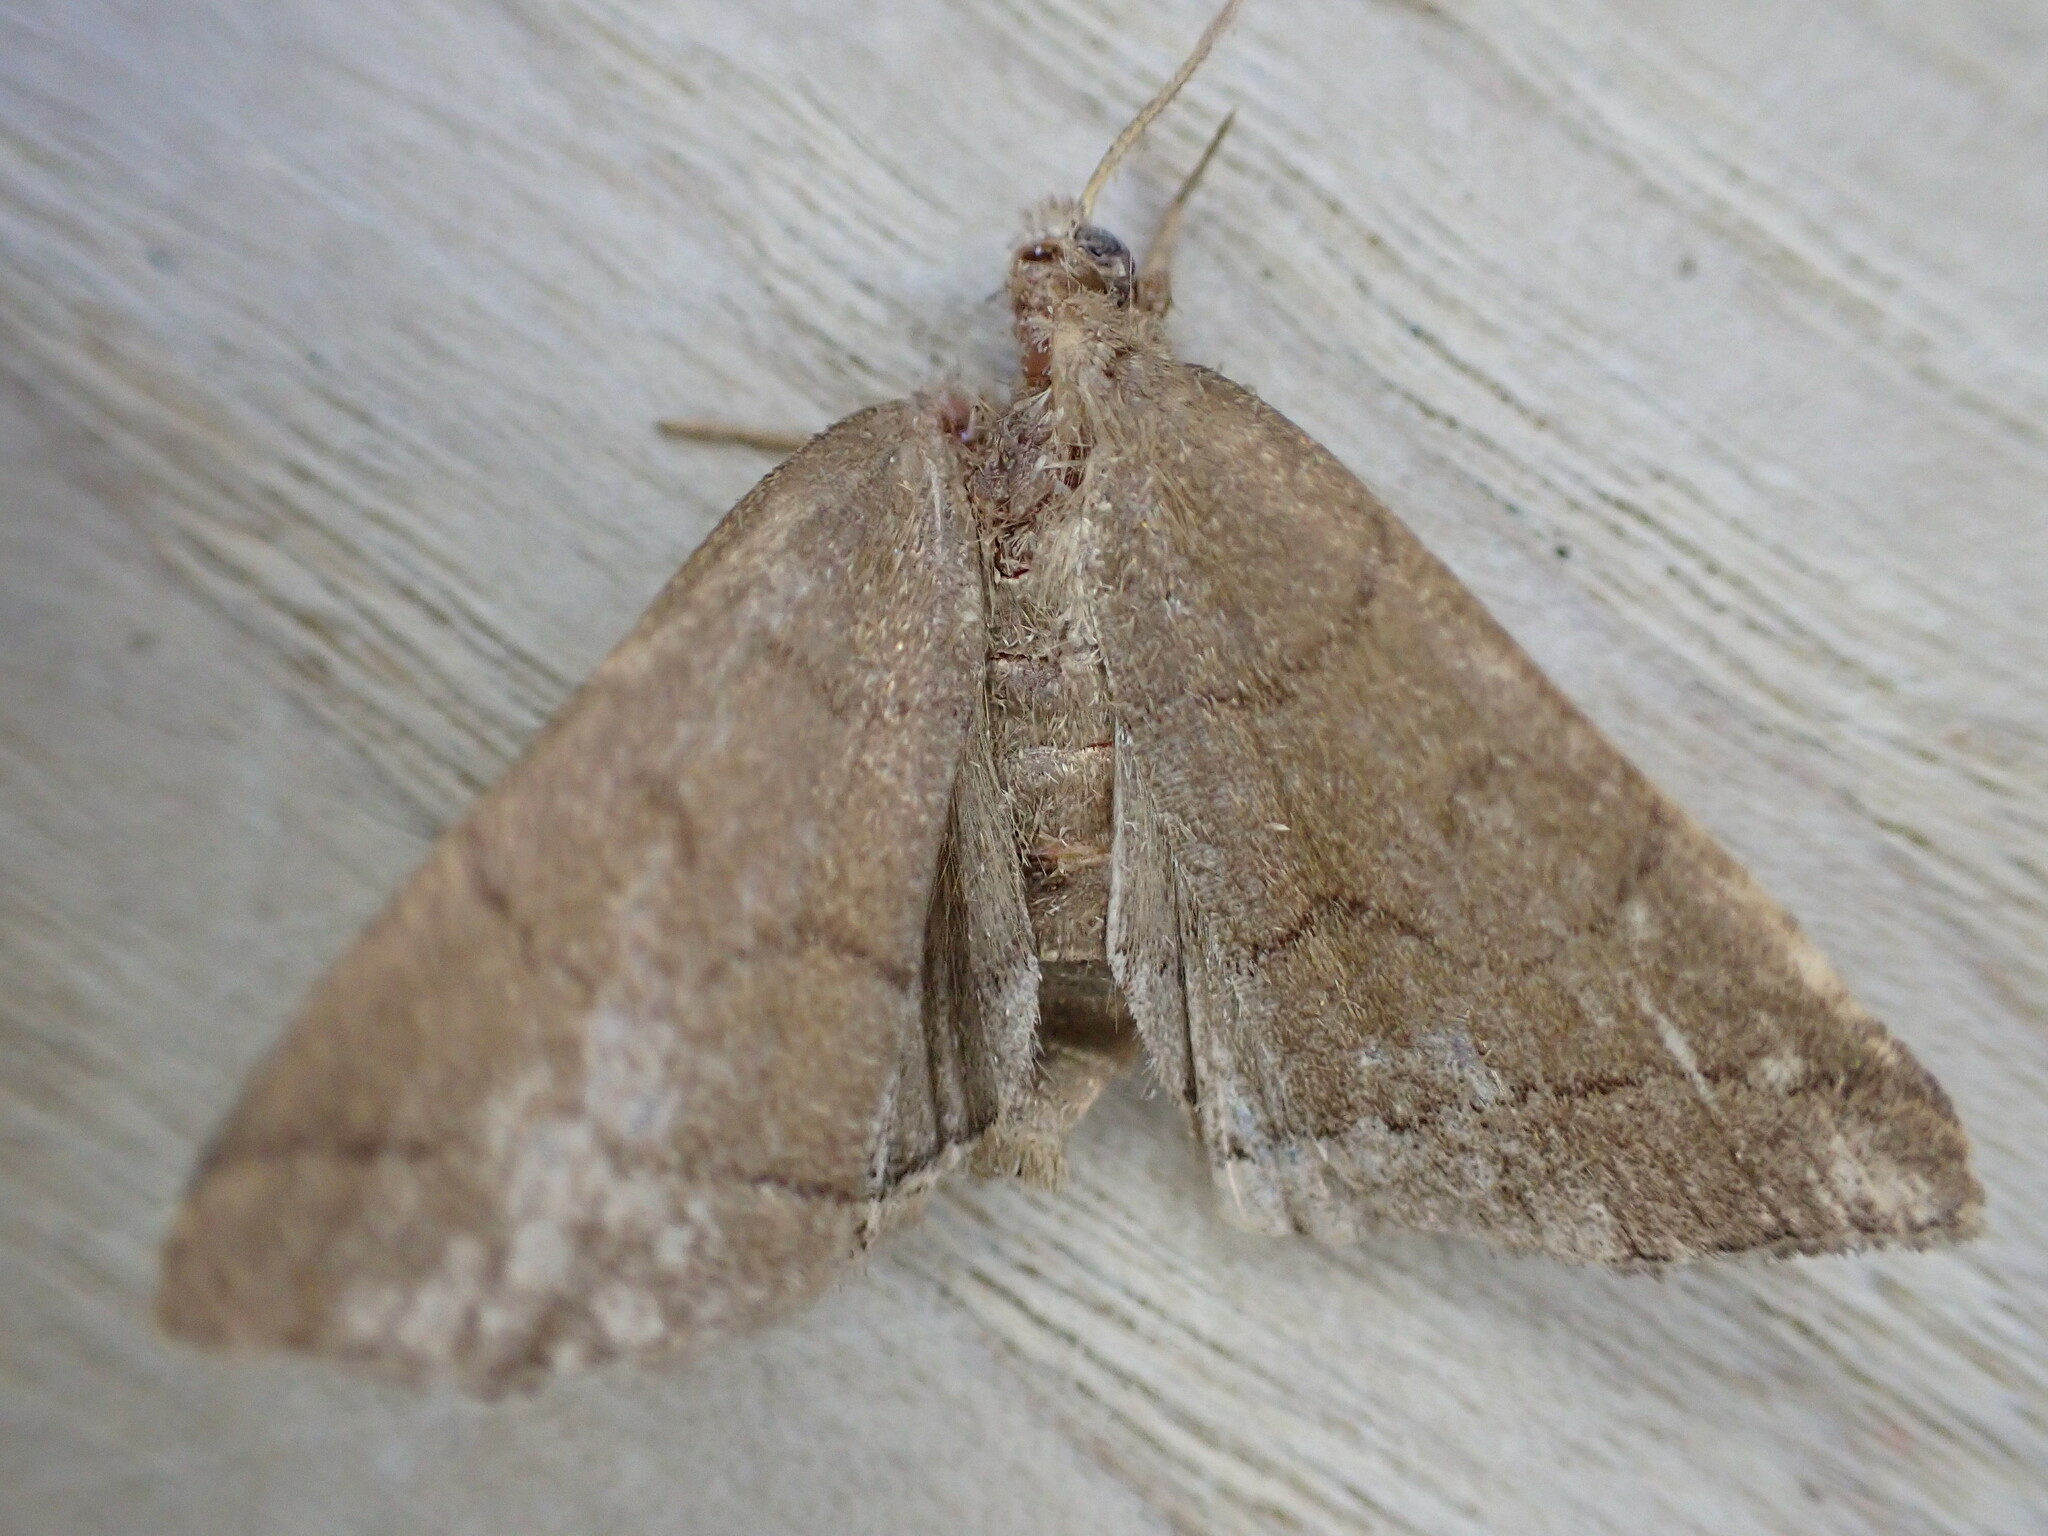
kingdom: Animalia
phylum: Arthropoda
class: Insecta
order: Lepidoptera
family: Erebidae
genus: Herminia
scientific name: Herminia tarsipennalis
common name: Fan-foot
